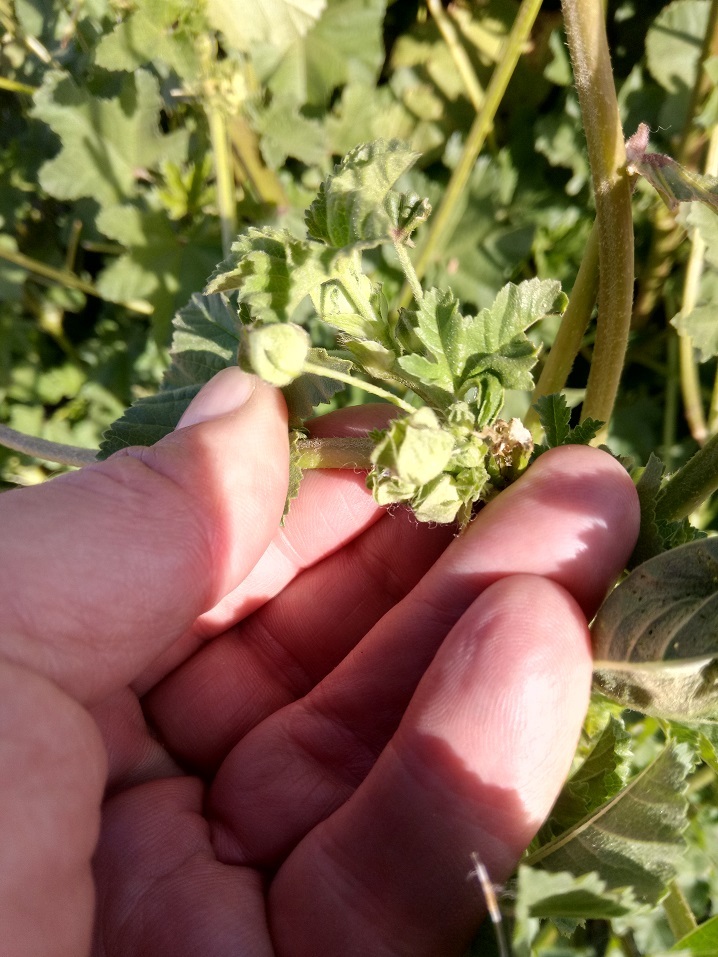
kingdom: Plantae
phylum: Tracheophyta
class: Magnoliopsida
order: Malvales
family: Malvaceae
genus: Malva
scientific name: Malva sylvestris
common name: Common mallow
